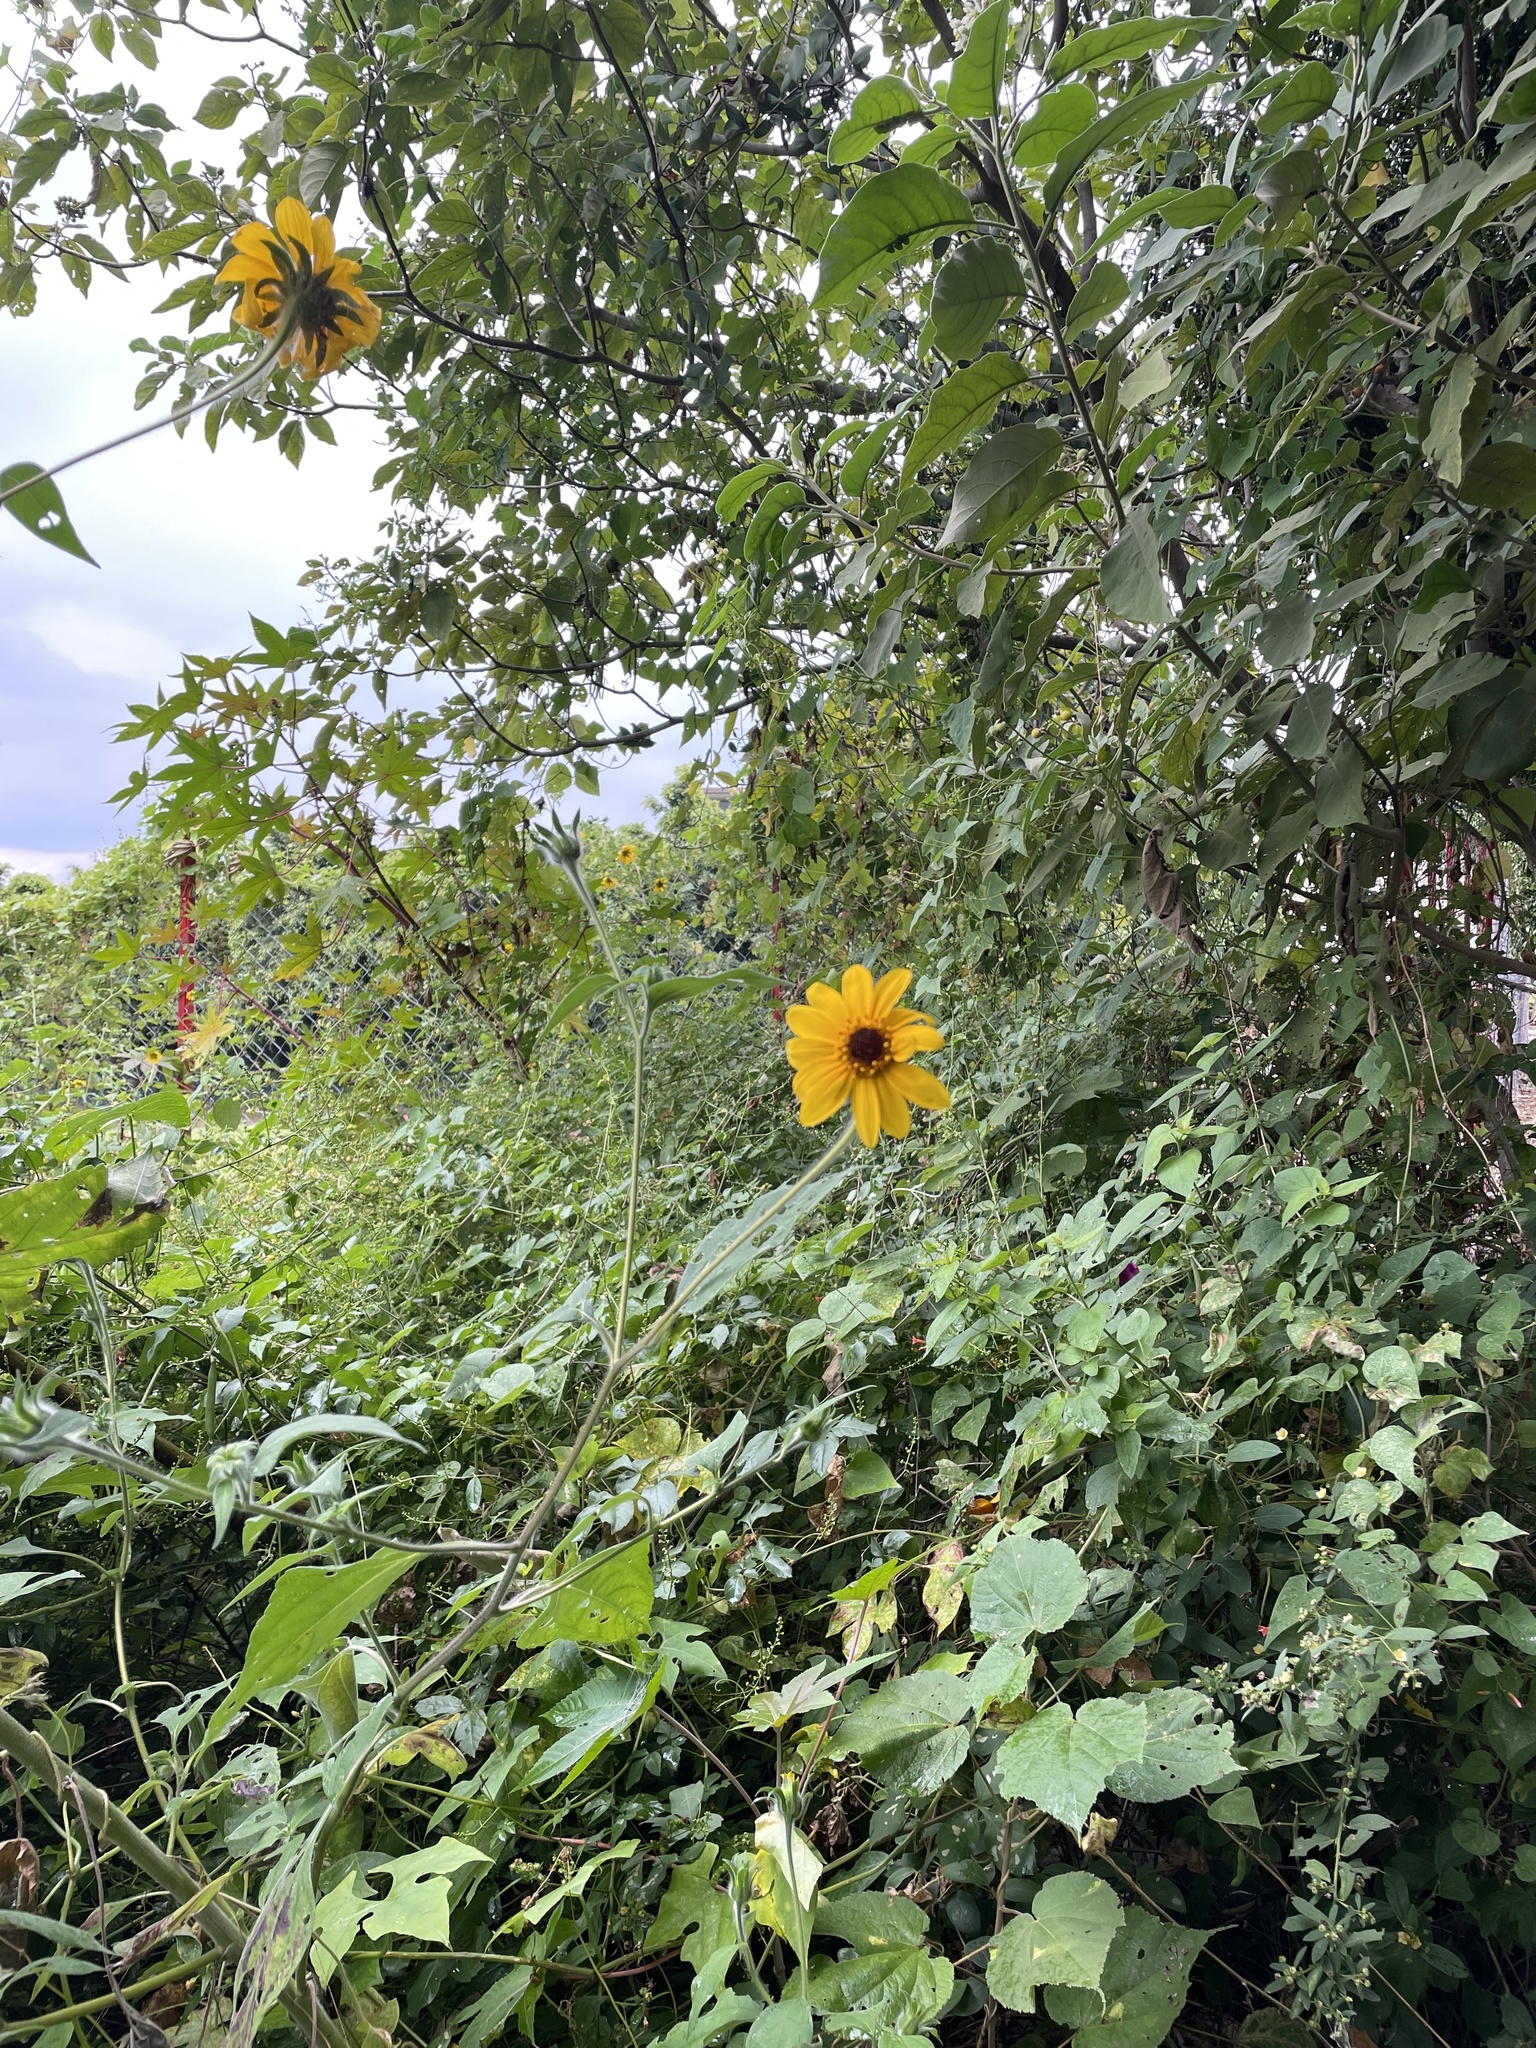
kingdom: Plantae
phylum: Tracheophyta
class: Magnoliopsida
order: Asterales
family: Asteraceae
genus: Tithonia
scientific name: Tithonia tubaeformis
